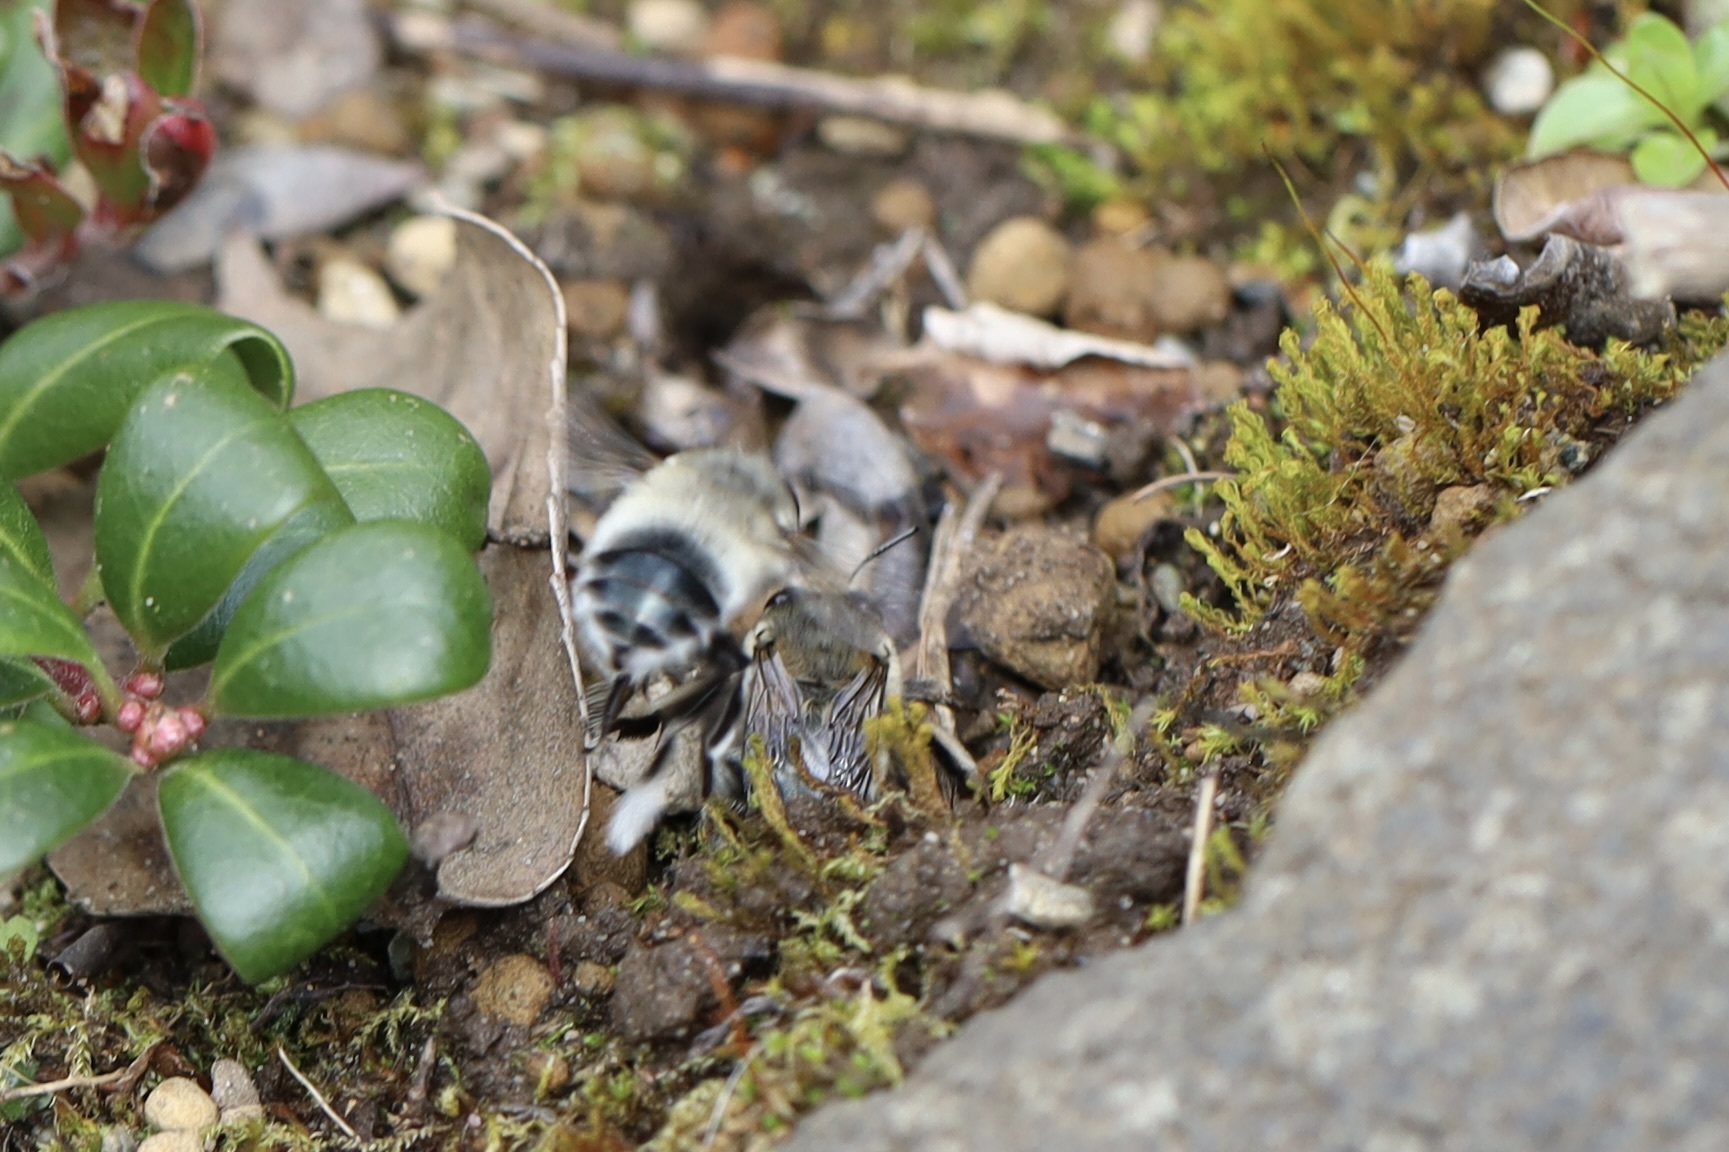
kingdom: Animalia
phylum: Arthropoda
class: Insecta
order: Hymenoptera
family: Apidae
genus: Anthophora
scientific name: Anthophora pacifica
